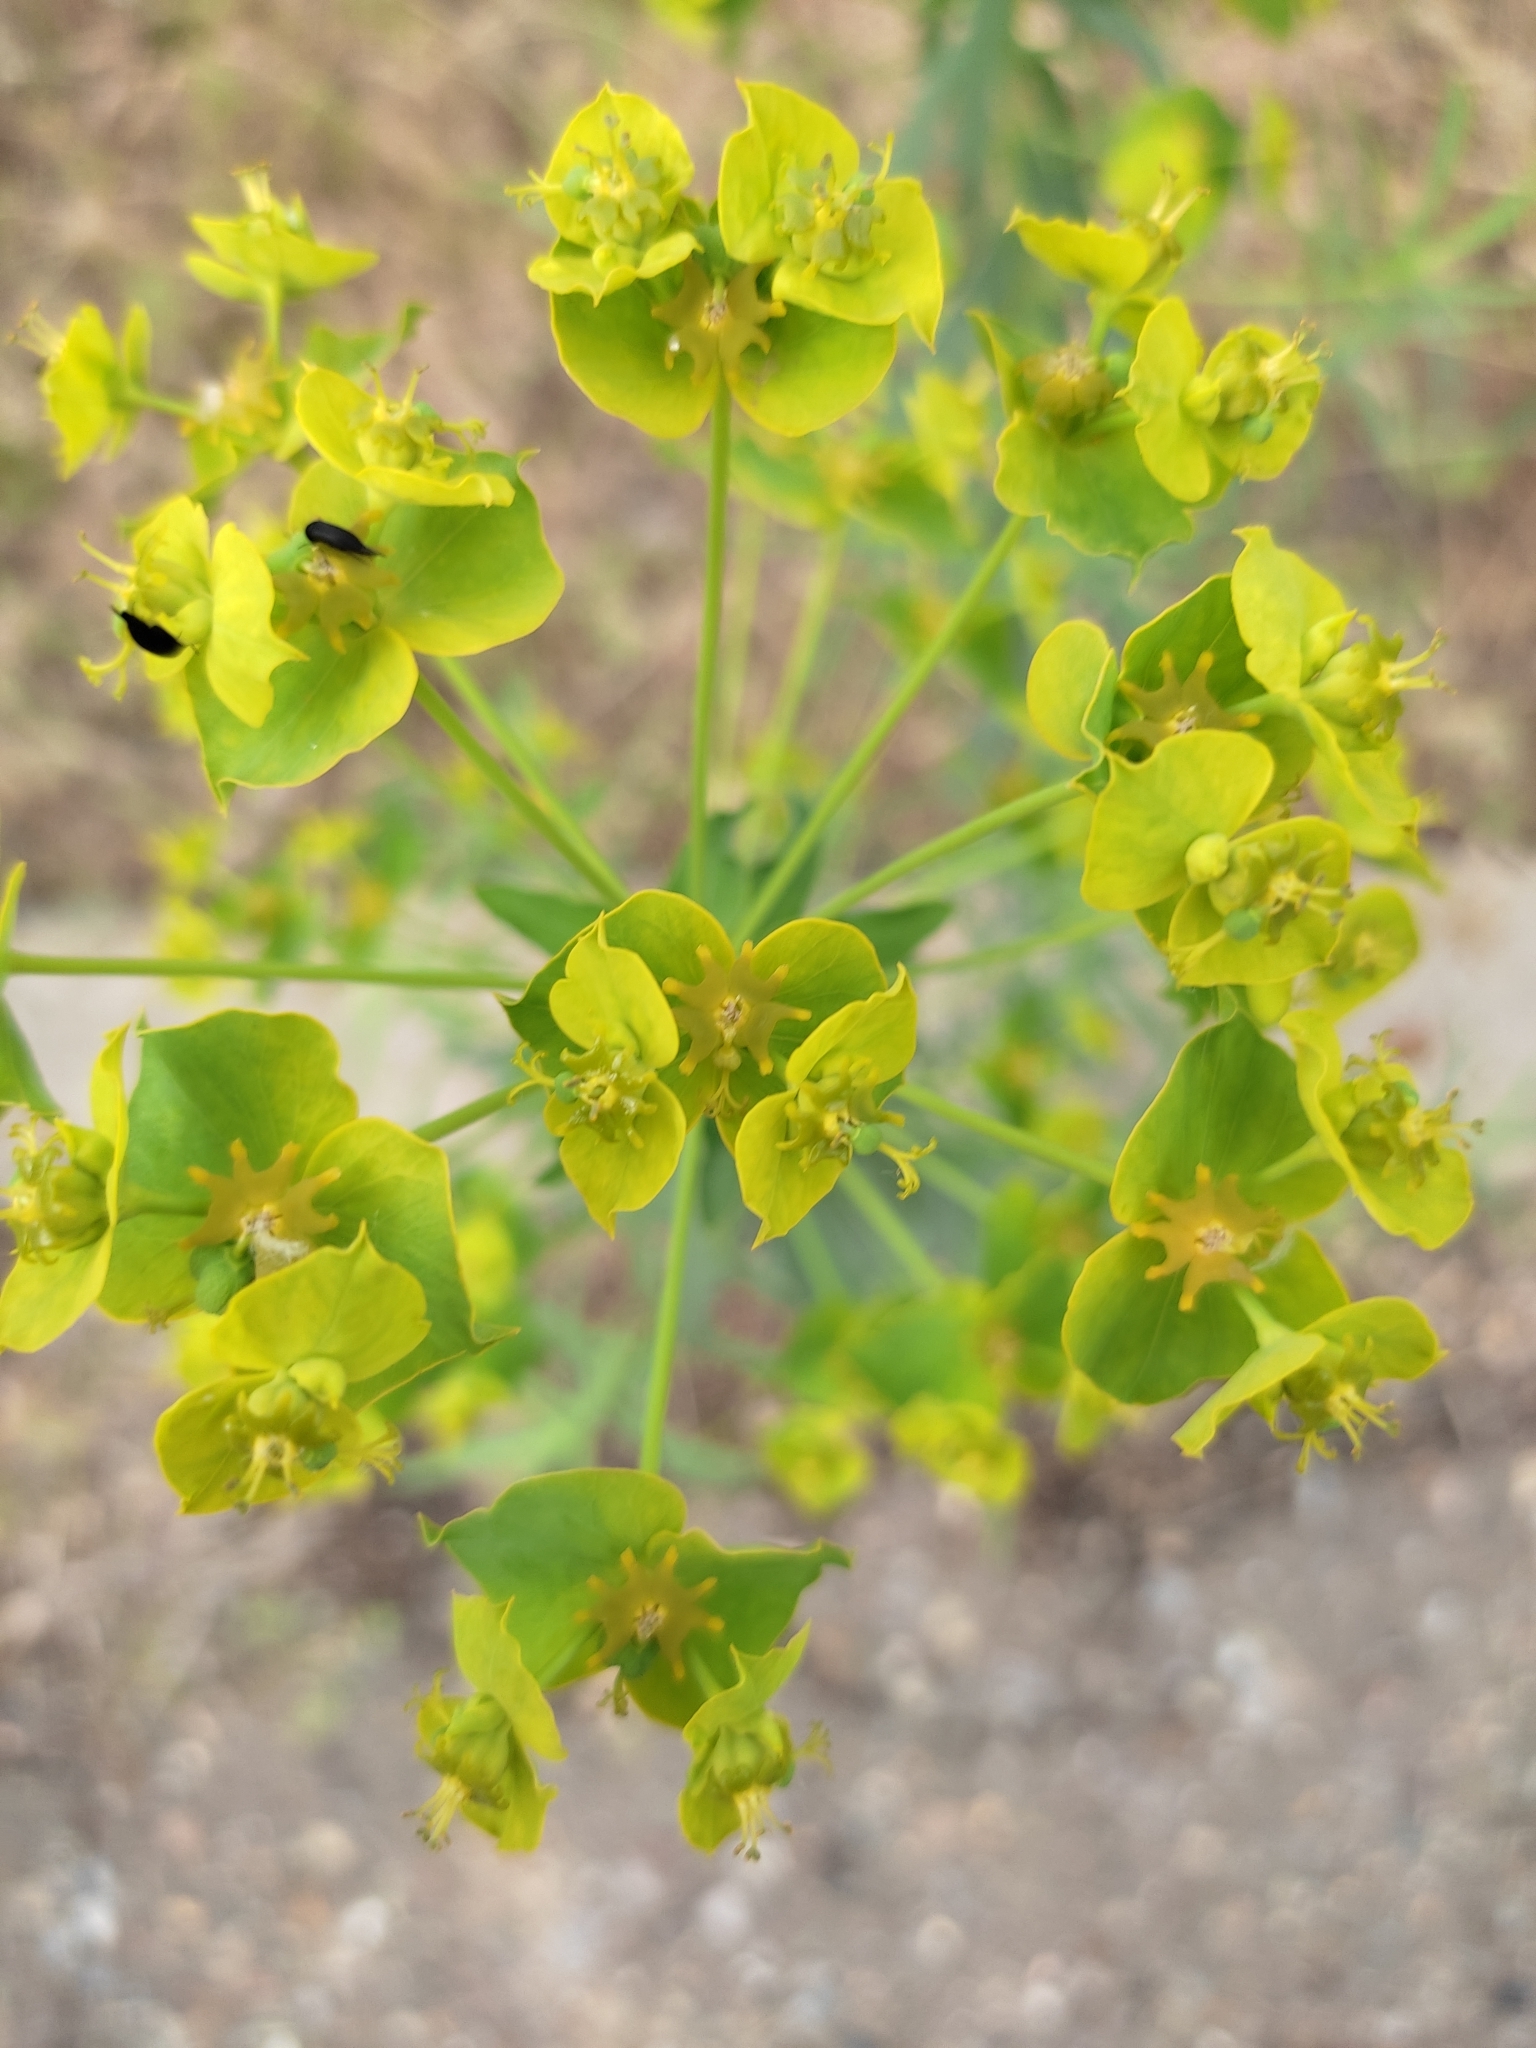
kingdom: Plantae
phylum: Tracheophyta
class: Magnoliopsida
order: Malpighiales
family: Euphorbiaceae
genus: Euphorbia
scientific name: Euphorbia virgata
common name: Leafy spurge
